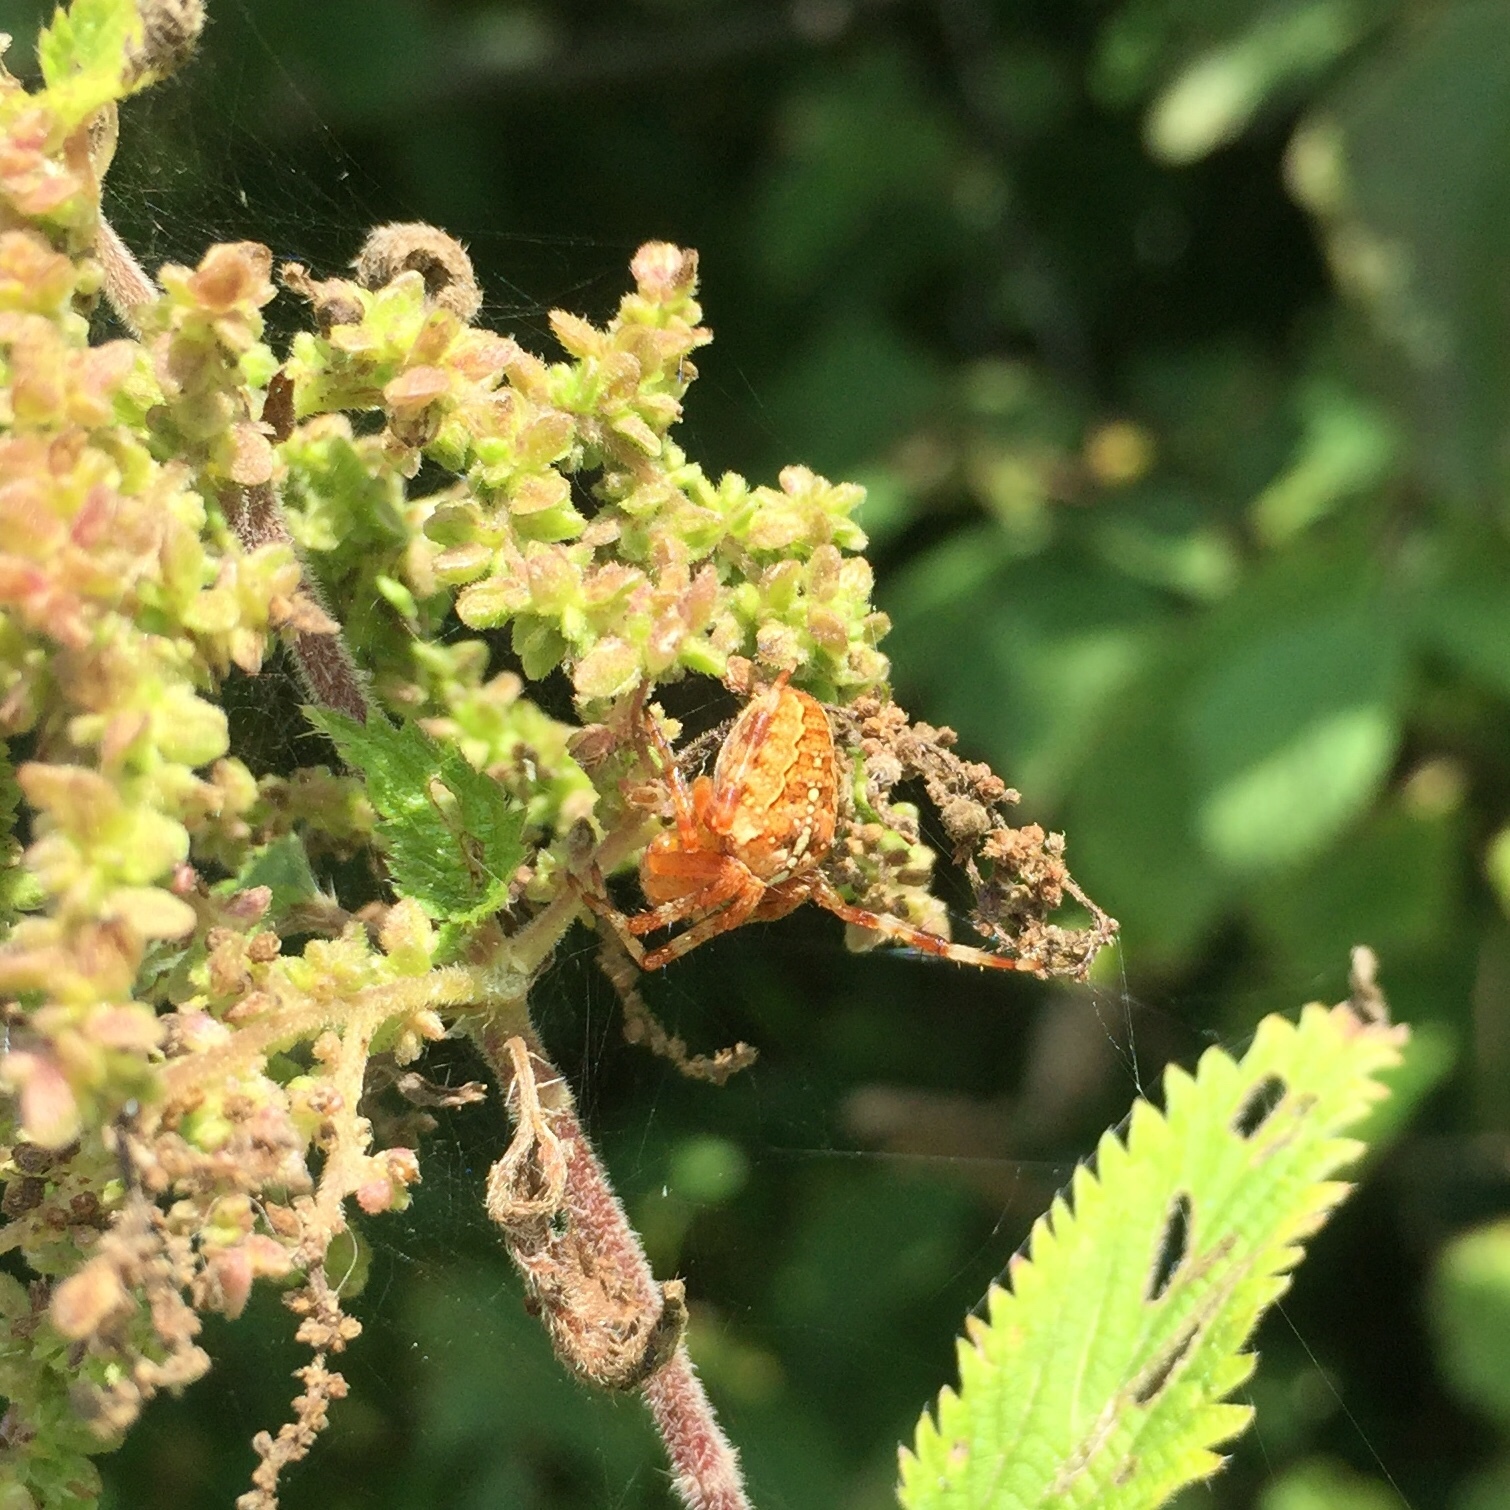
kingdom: Animalia
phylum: Arthropoda
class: Arachnida
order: Araneae
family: Araneidae
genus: Araneus
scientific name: Araneus diadematus
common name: Cross orbweaver
